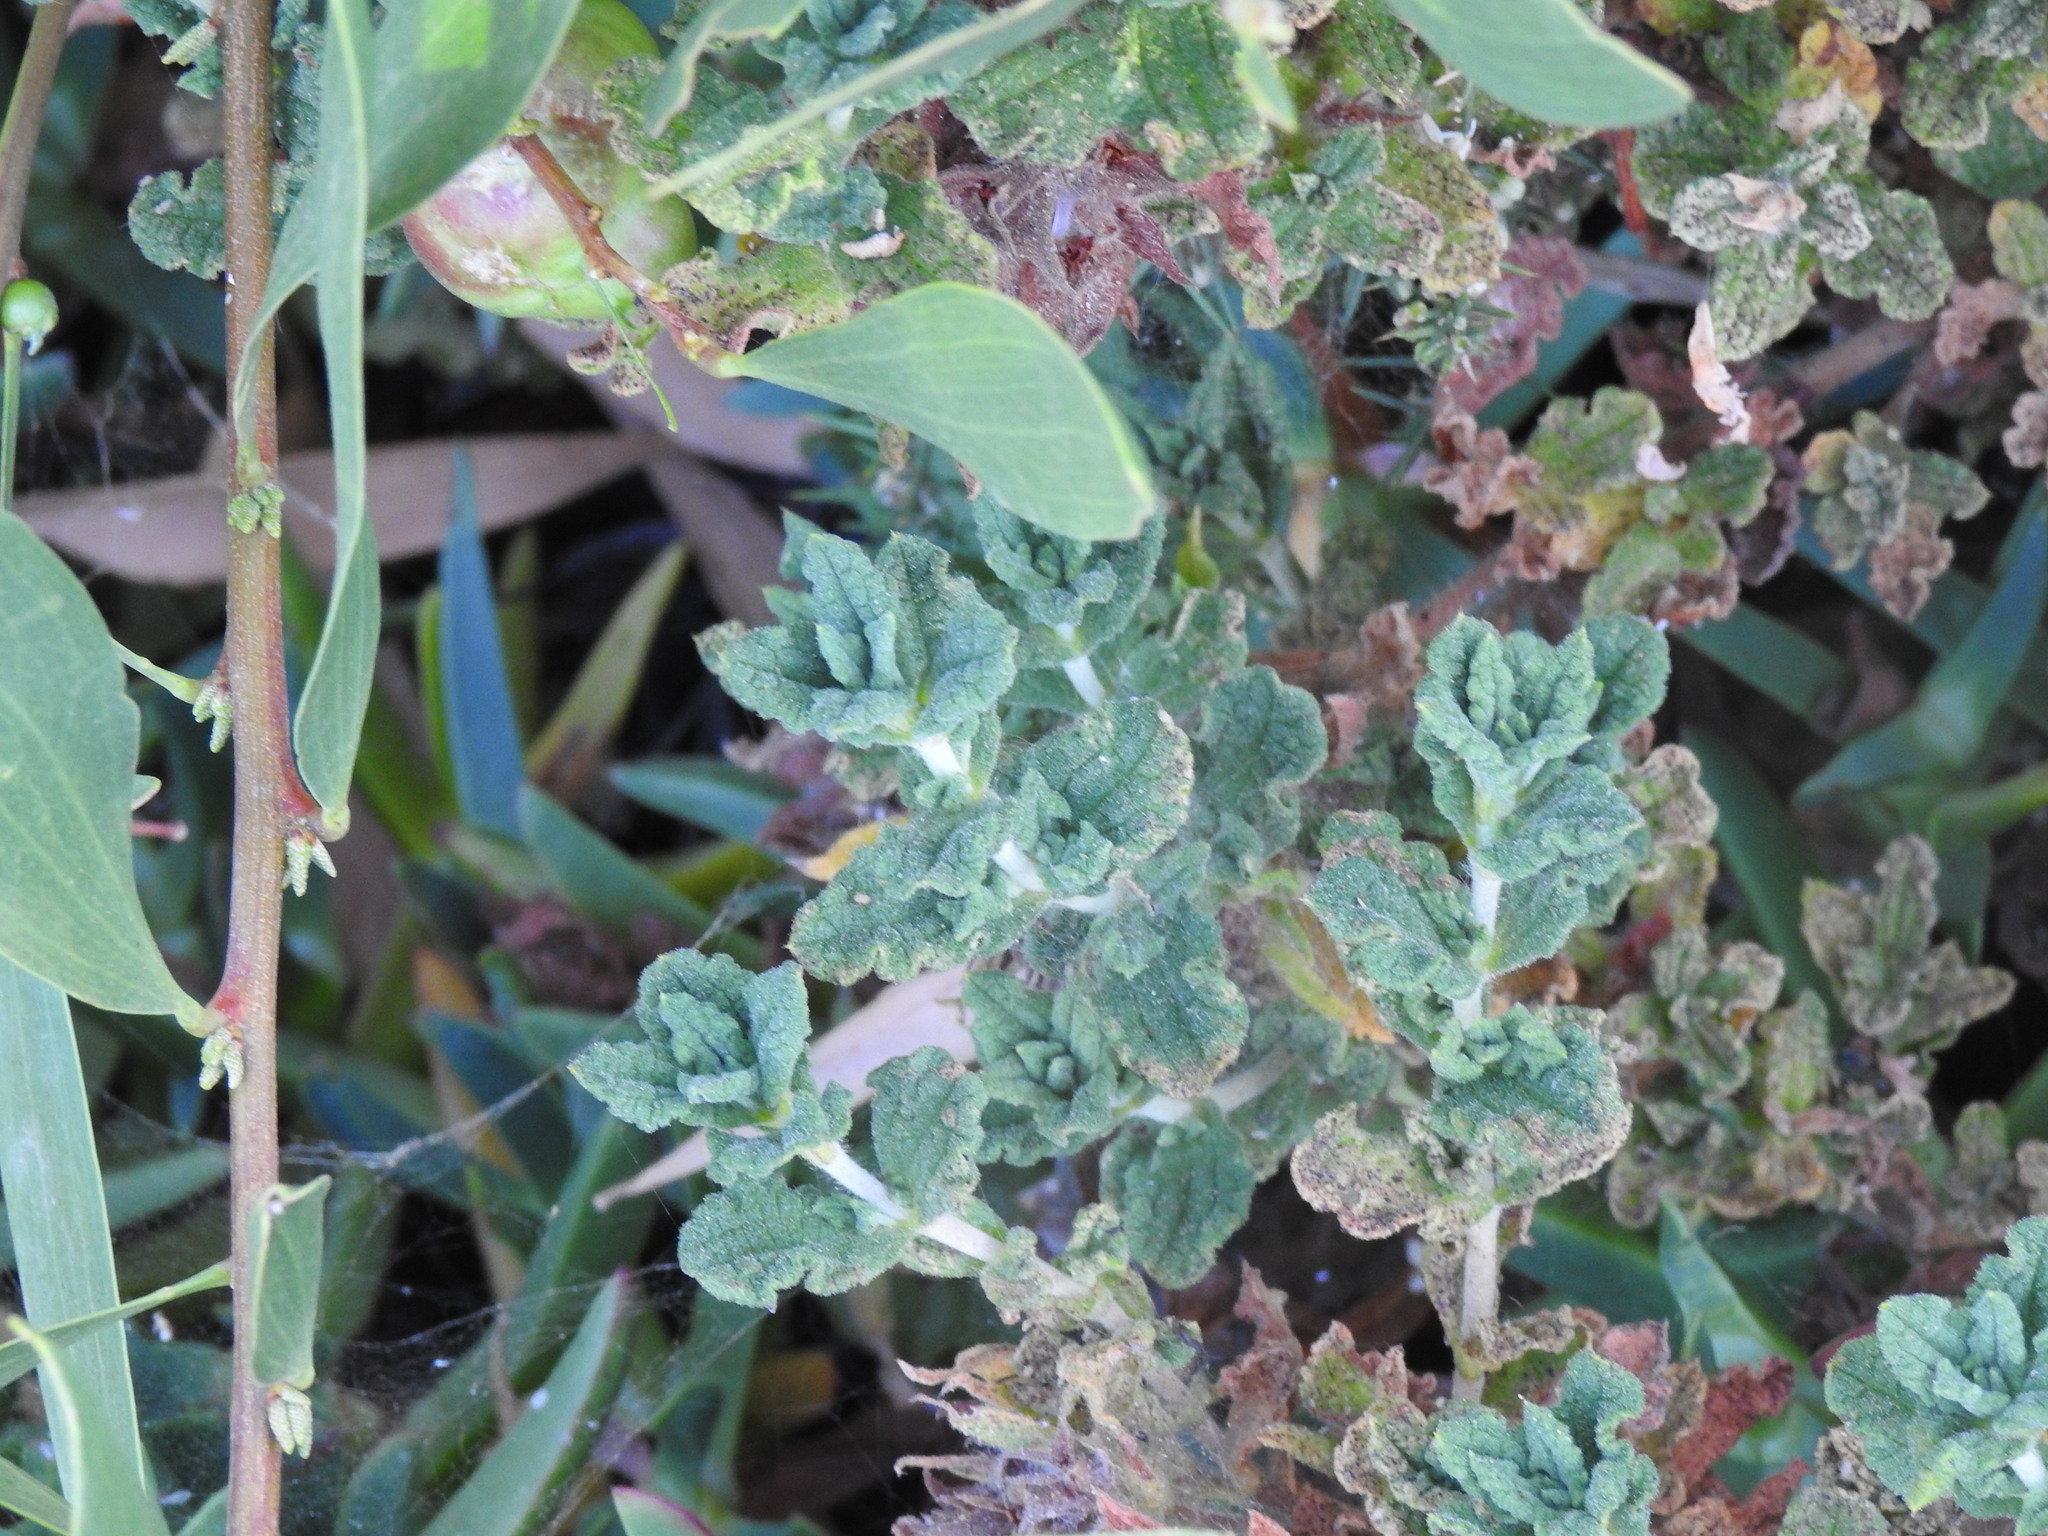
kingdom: Plantae
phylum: Tracheophyta
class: Magnoliopsida
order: Malvales
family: Cistaceae
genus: Cistus
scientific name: Cistus crispus
